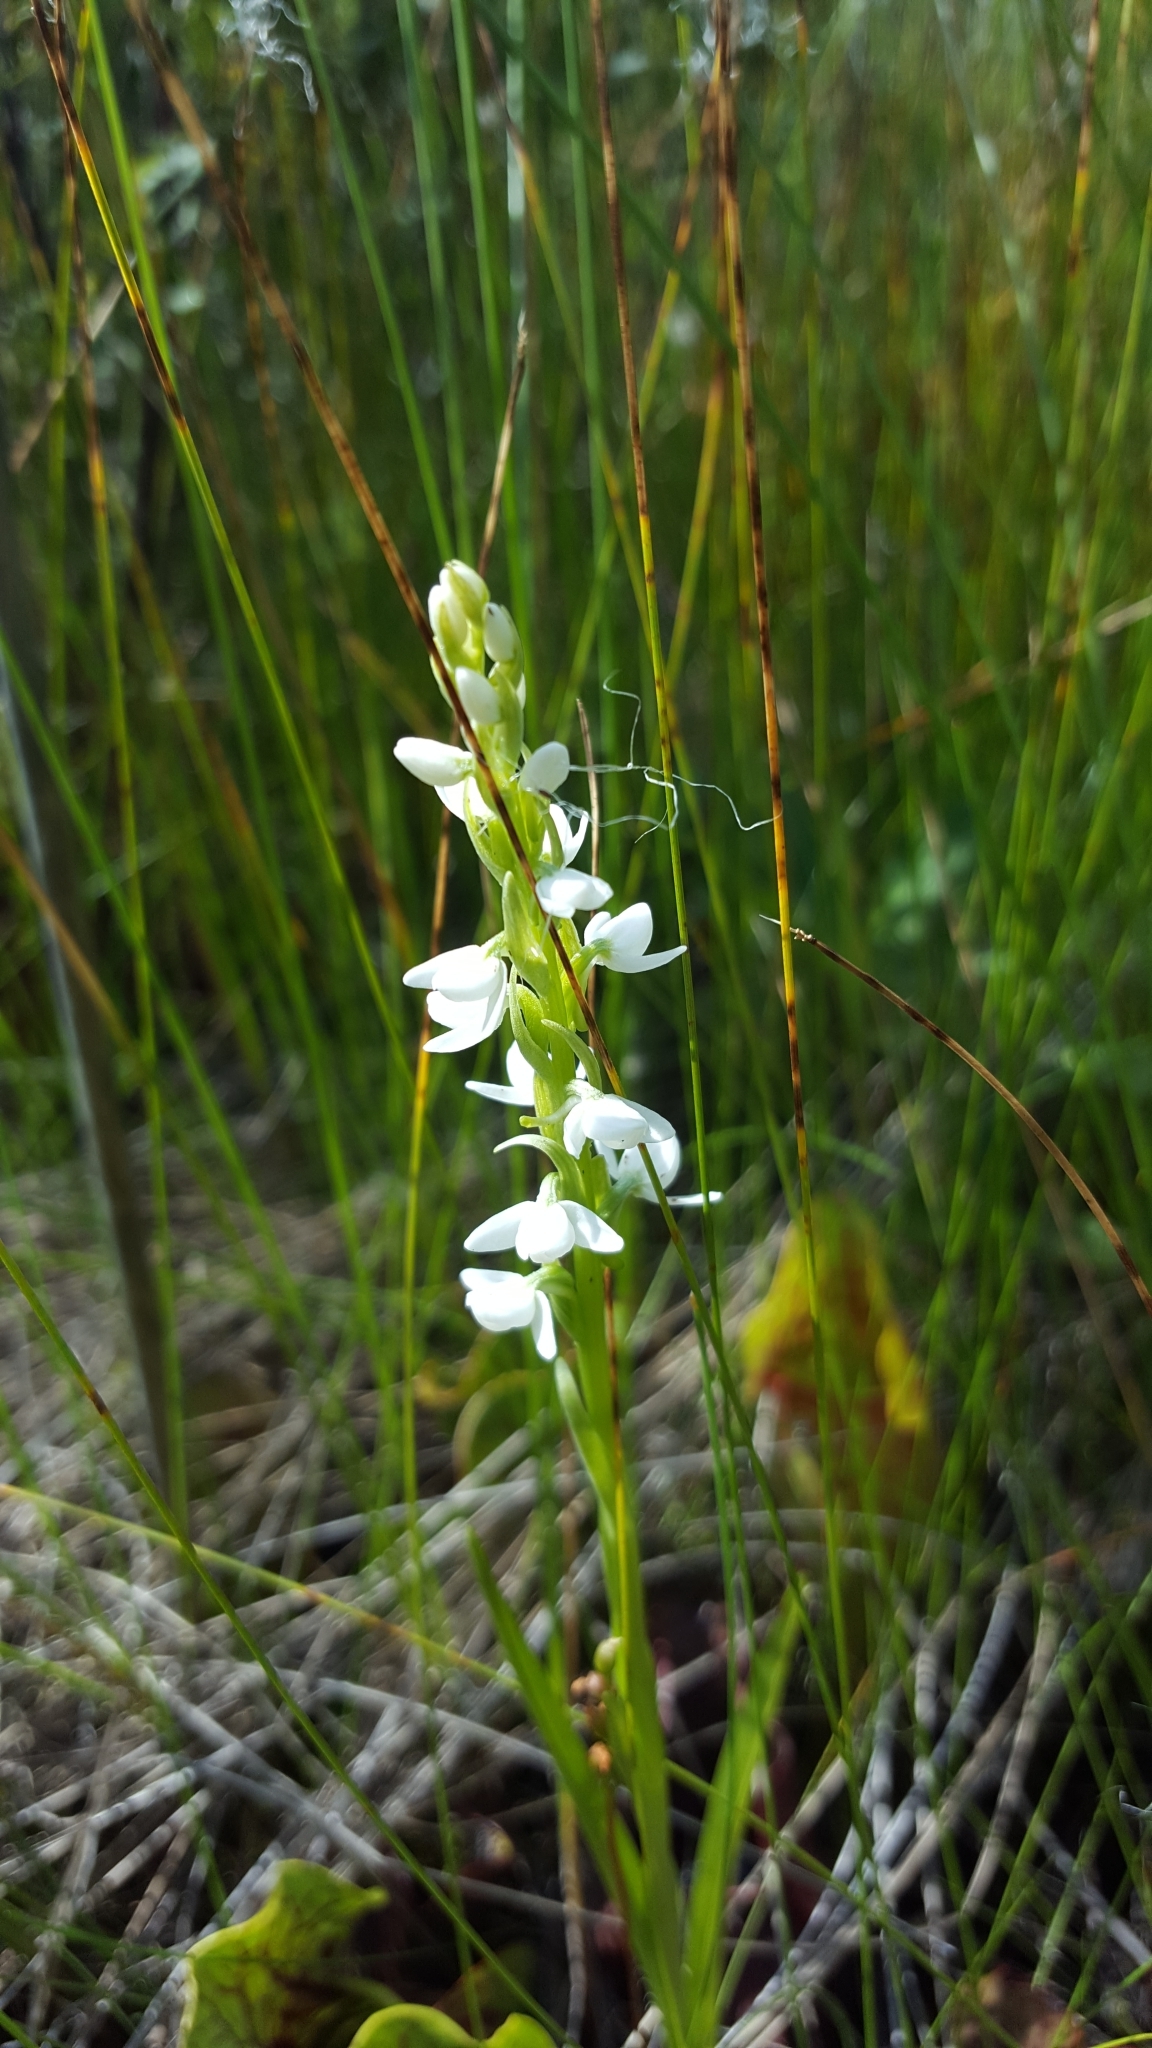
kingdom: Plantae
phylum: Tracheophyta
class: Liliopsida
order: Asparagales
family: Orchidaceae
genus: Platanthera
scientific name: Platanthera dilatata
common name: Bog candles
